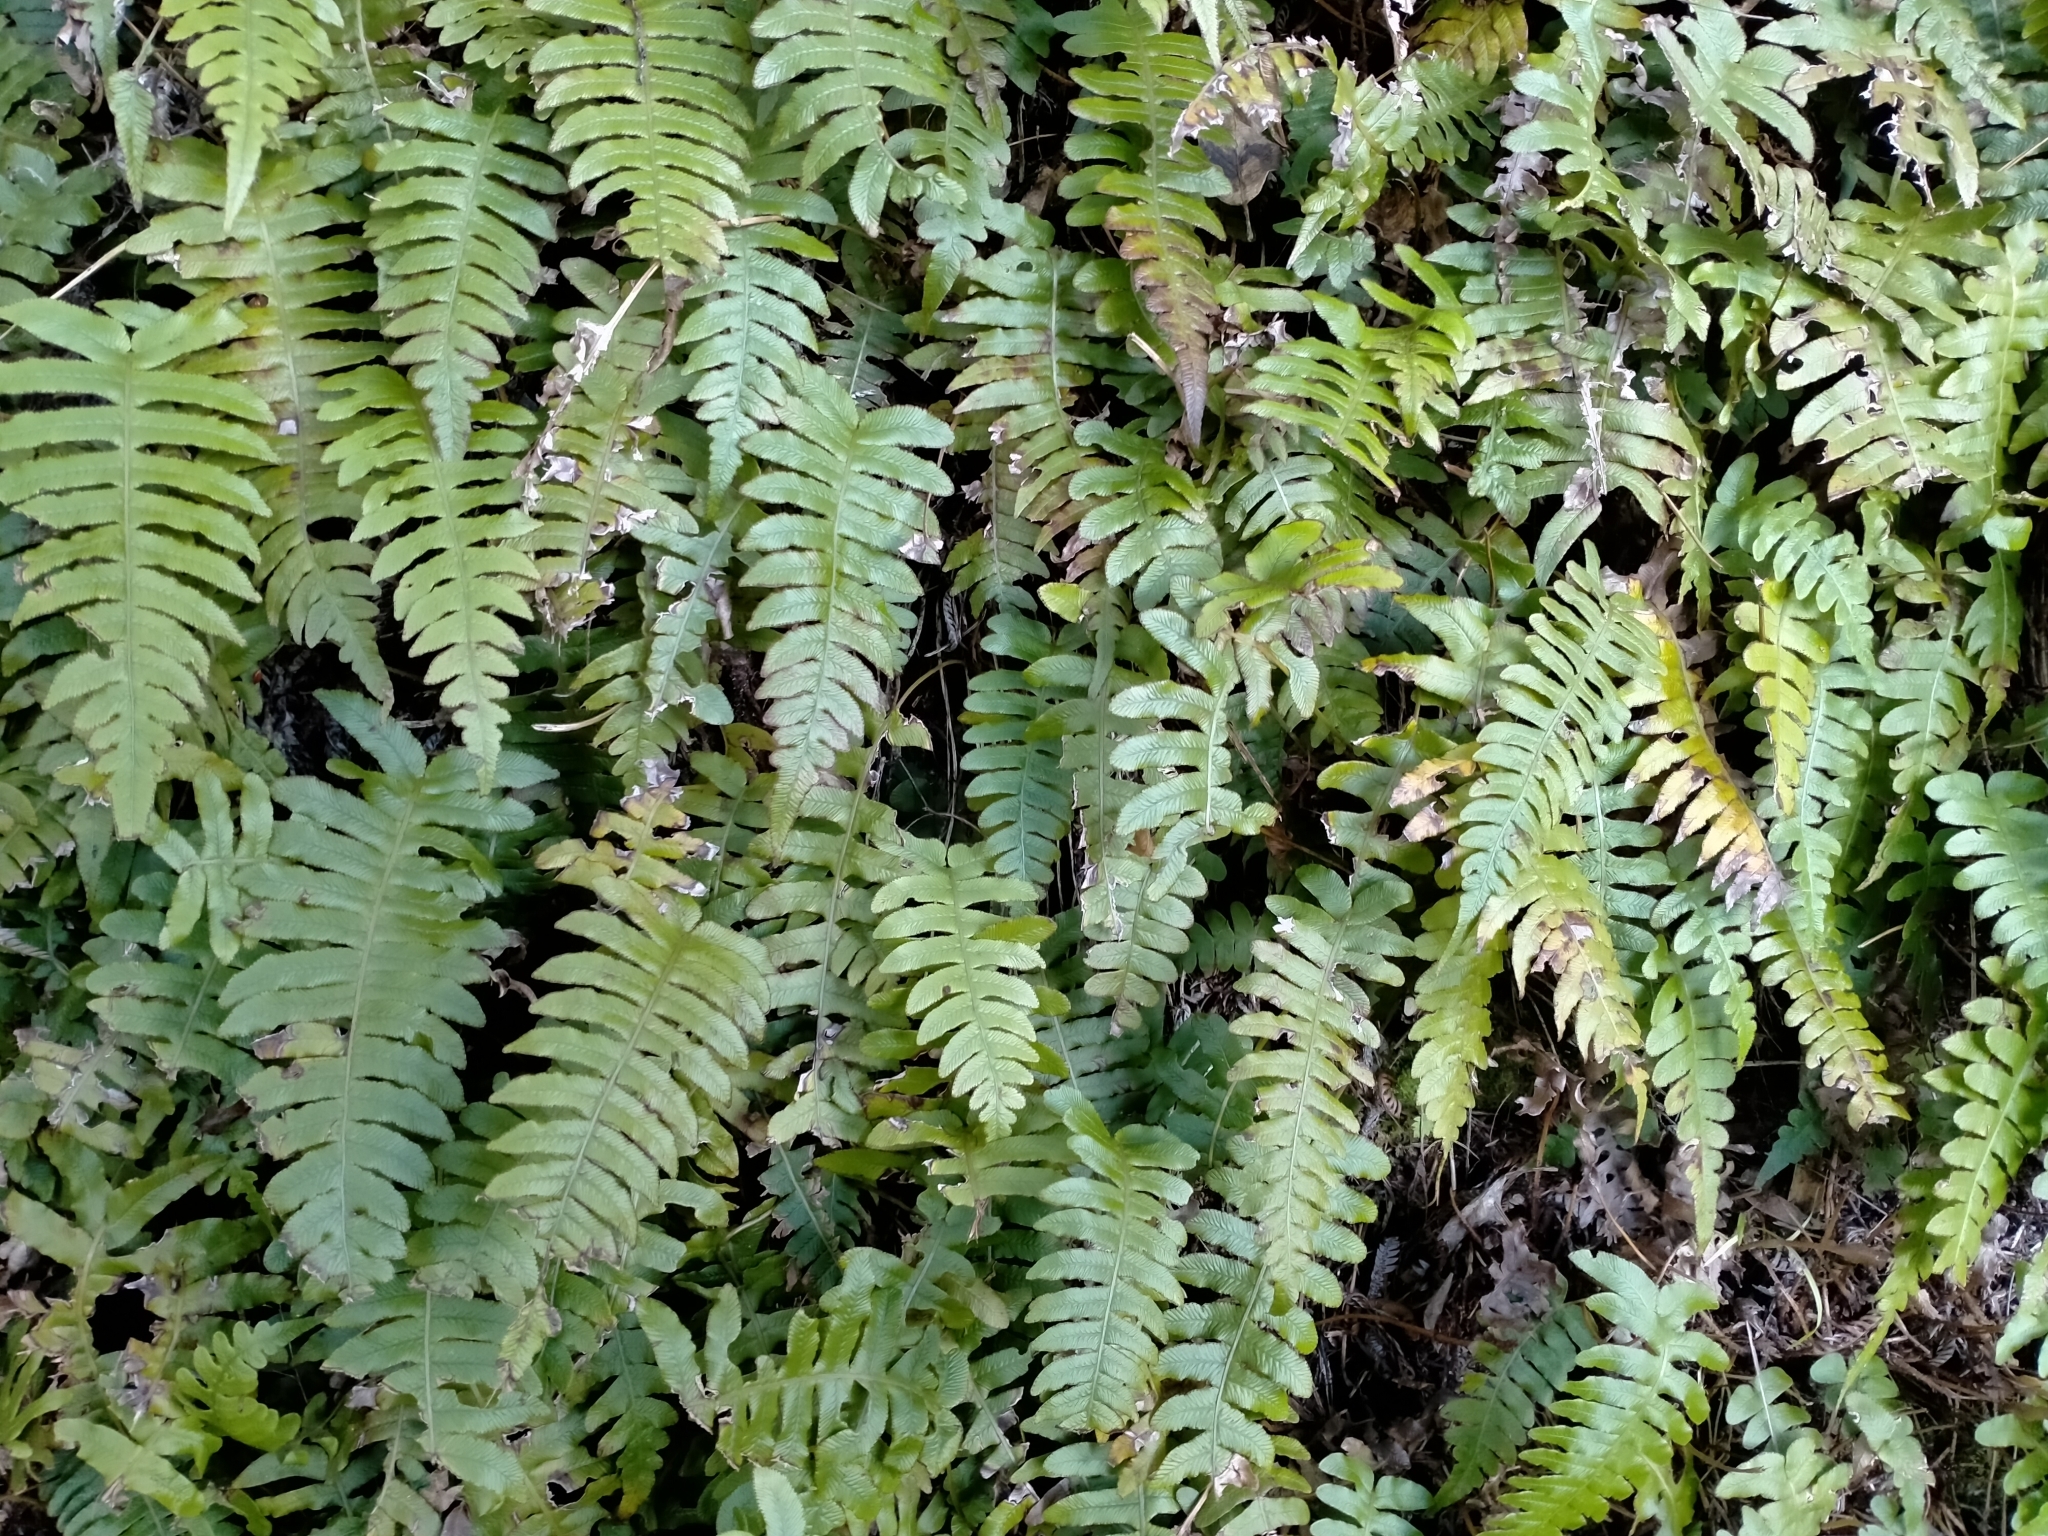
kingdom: Plantae
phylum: Tracheophyta
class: Polypodiopsida
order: Polypodiales
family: Blechnaceae
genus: Cranfillia
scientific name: Cranfillia deltoides
